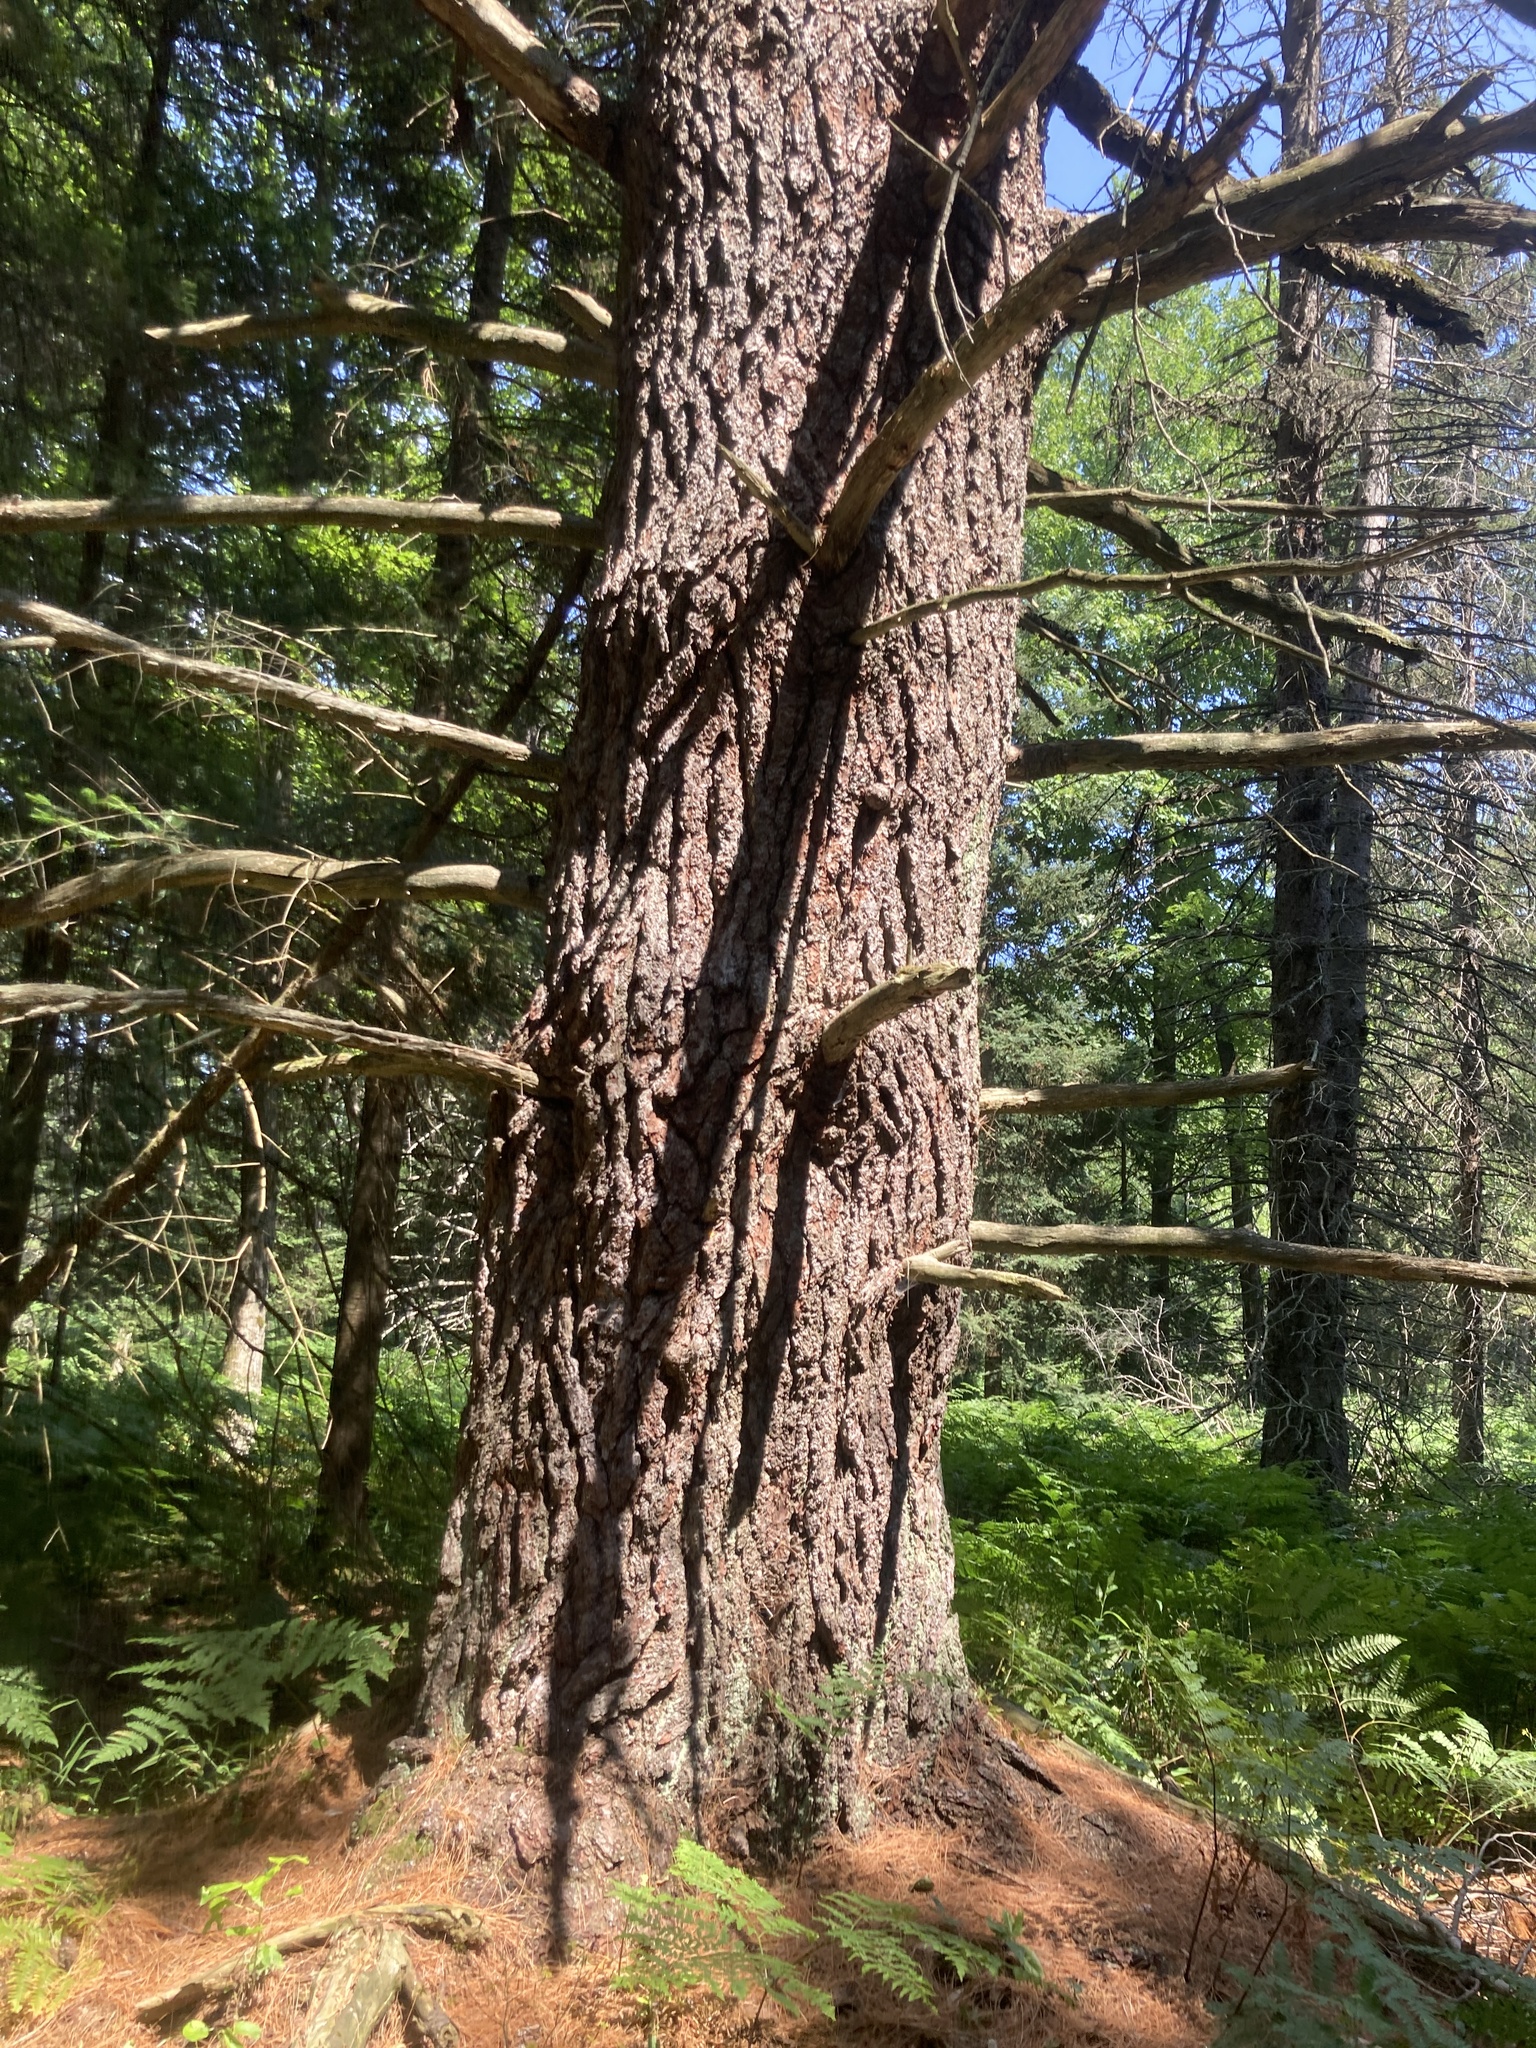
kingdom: Plantae
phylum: Tracheophyta
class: Pinopsida
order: Pinales
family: Pinaceae
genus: Pinus
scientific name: Pinus strobus
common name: Weymouth pine
